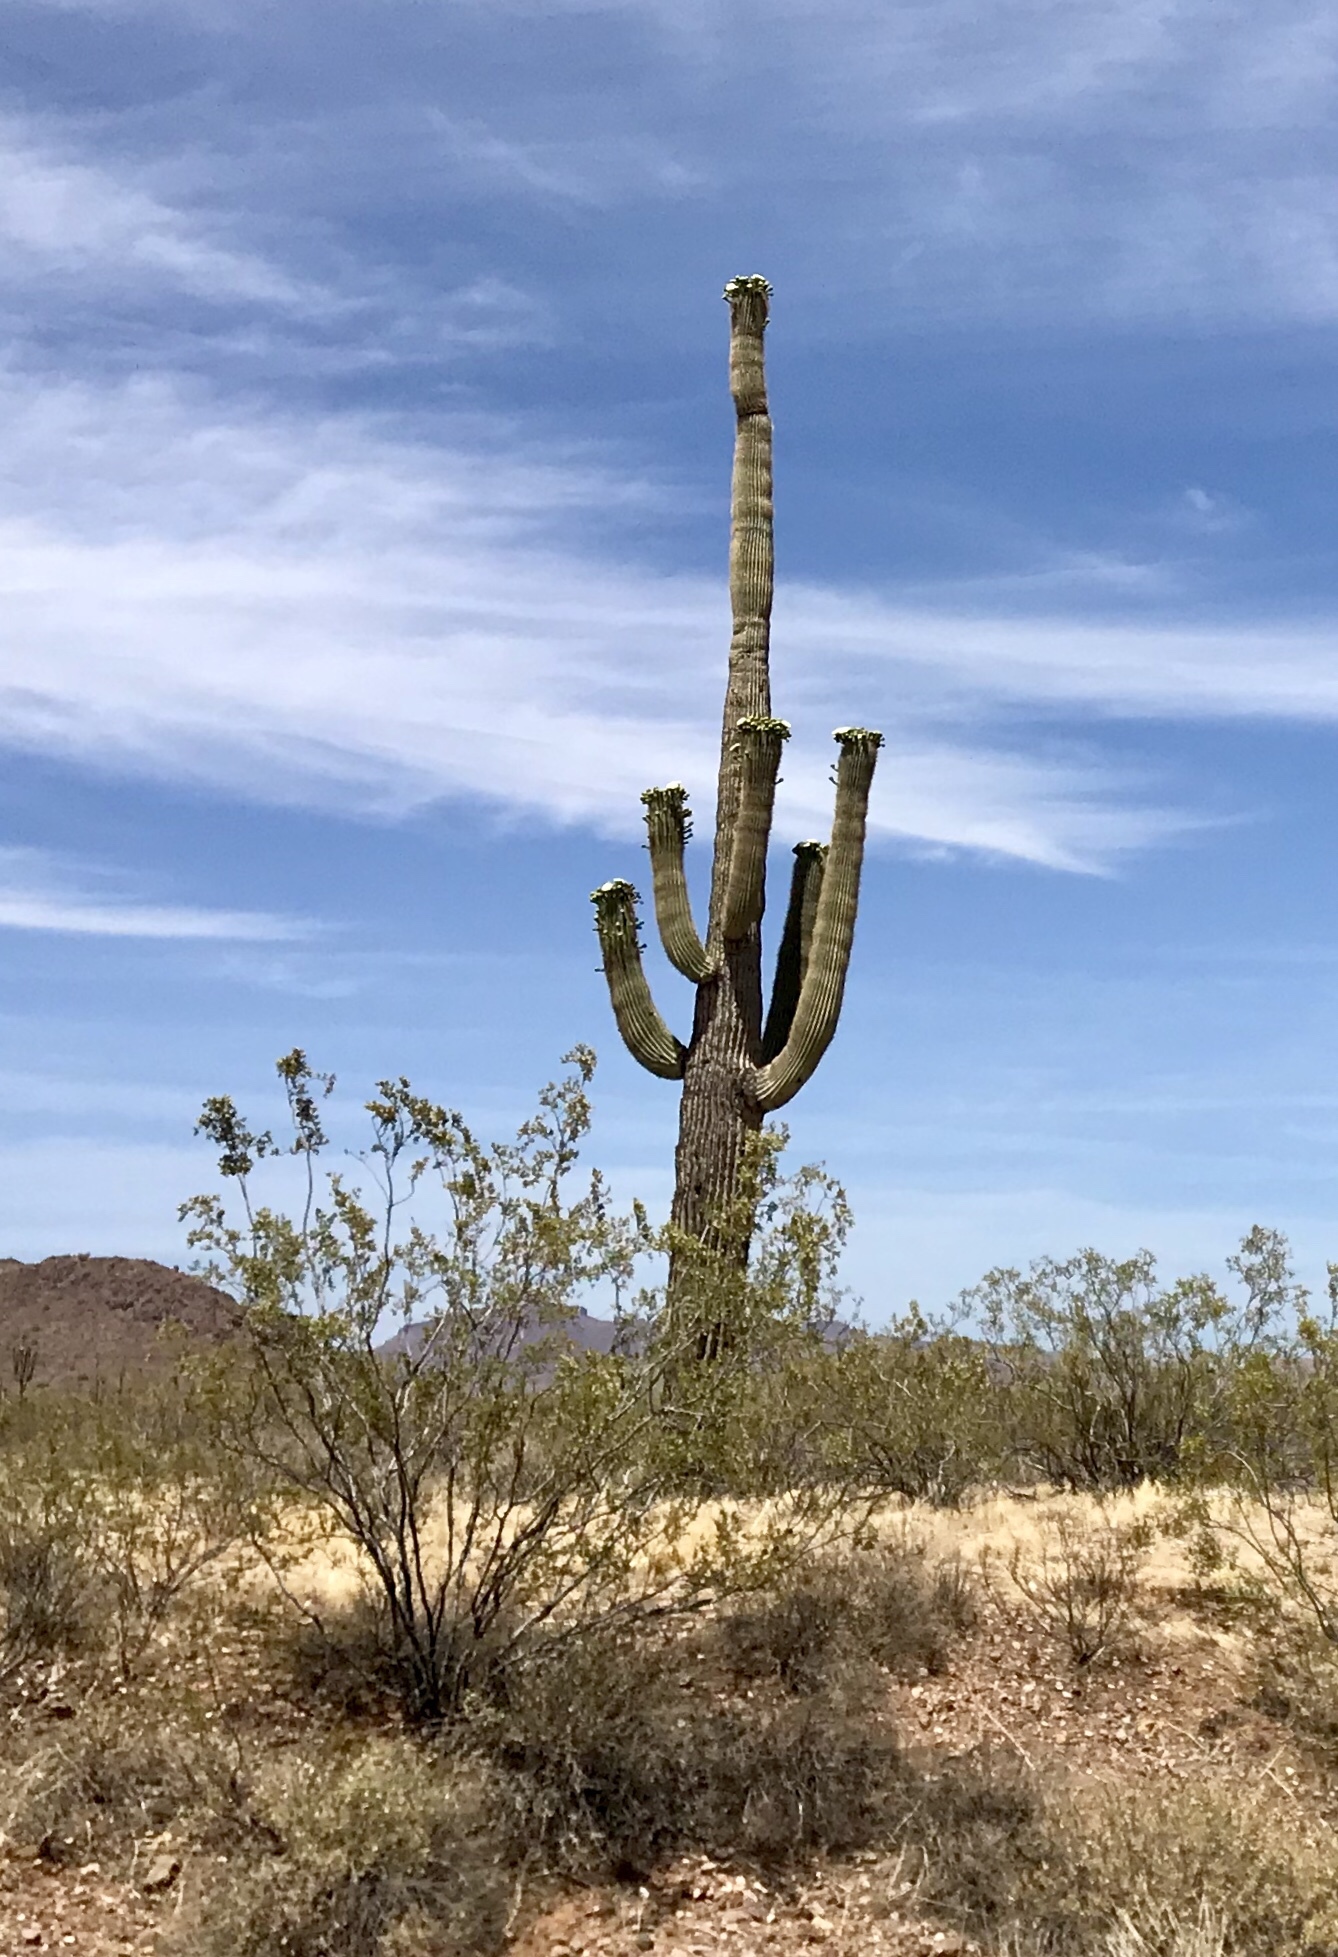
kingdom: Plantae
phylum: Tracheophyta
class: Magnoliopsida
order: Caryophyllales
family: Cactaceae
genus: Carnegiea
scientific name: Carnegiea gigantea
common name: Saguaro
